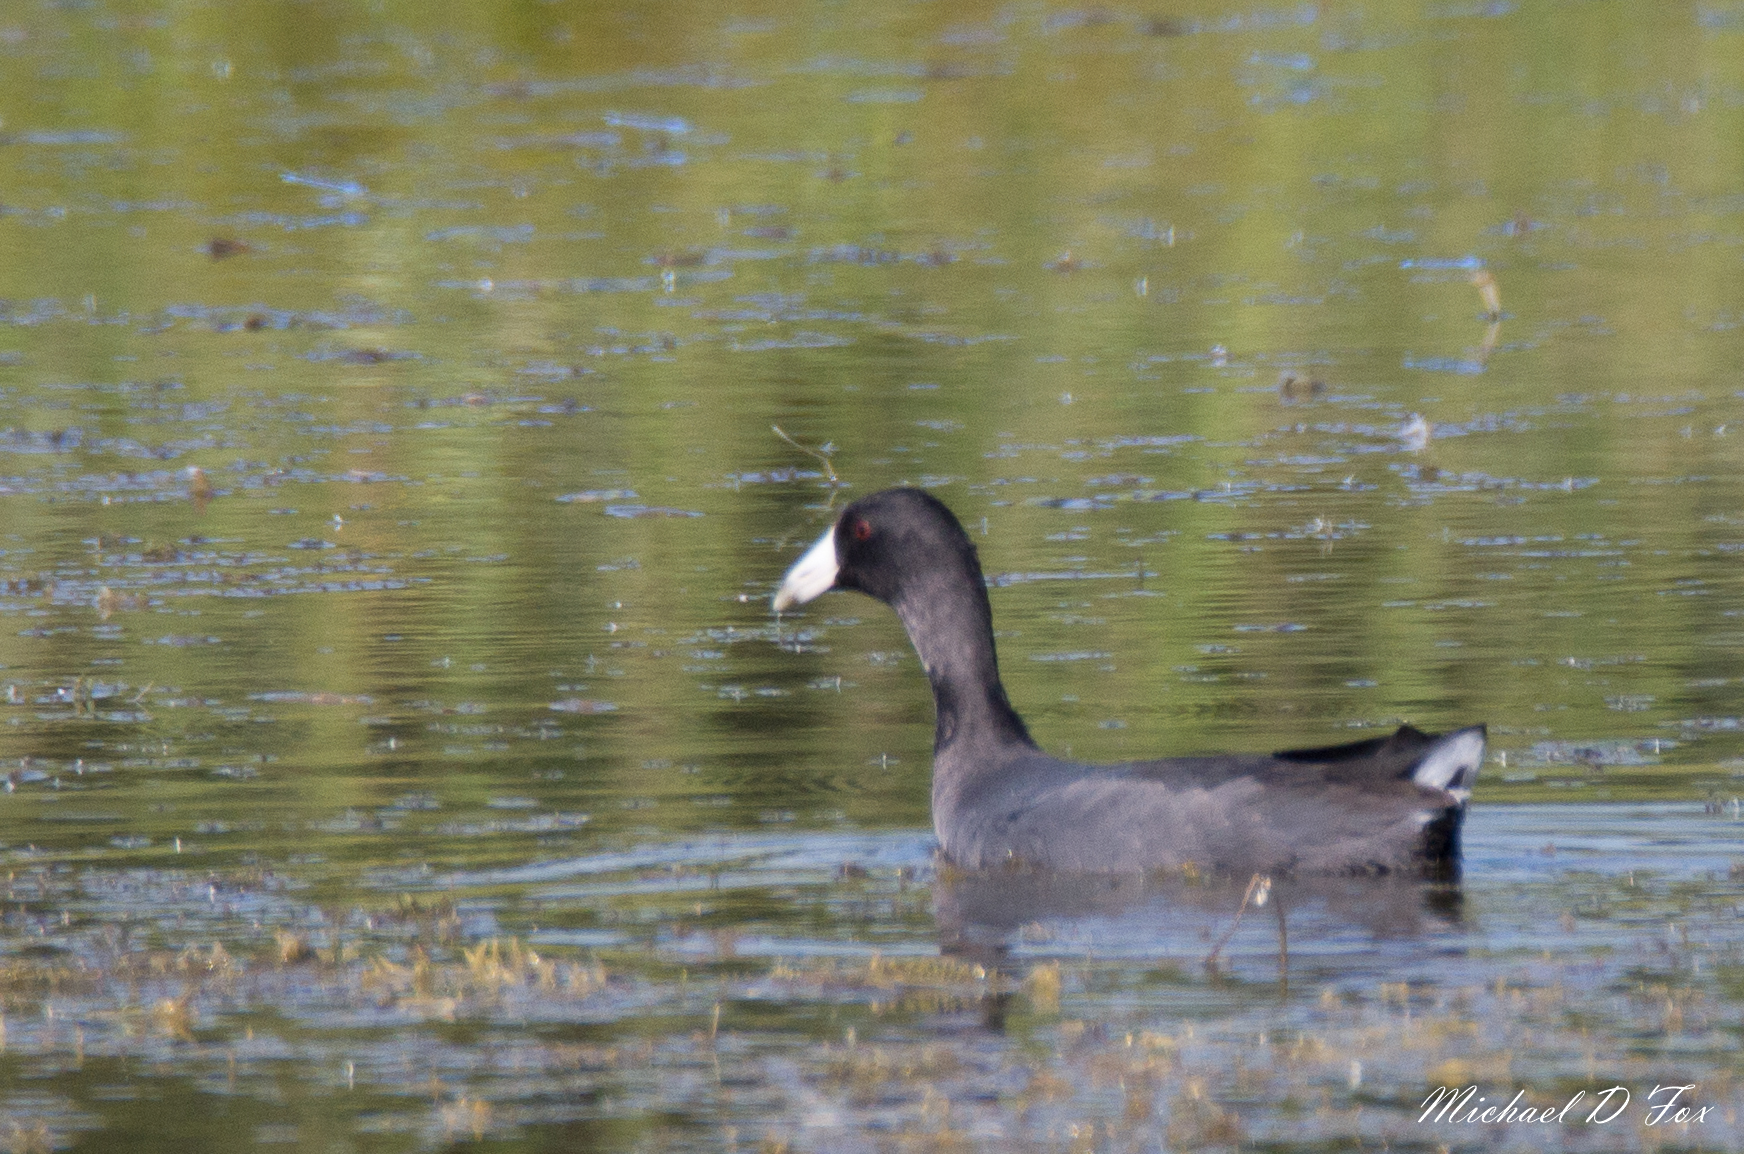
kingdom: Animalia
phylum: Chordata
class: Aves
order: Gruiformes
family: Rallidae
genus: Fulica
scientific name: Fulica americana
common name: American coot
